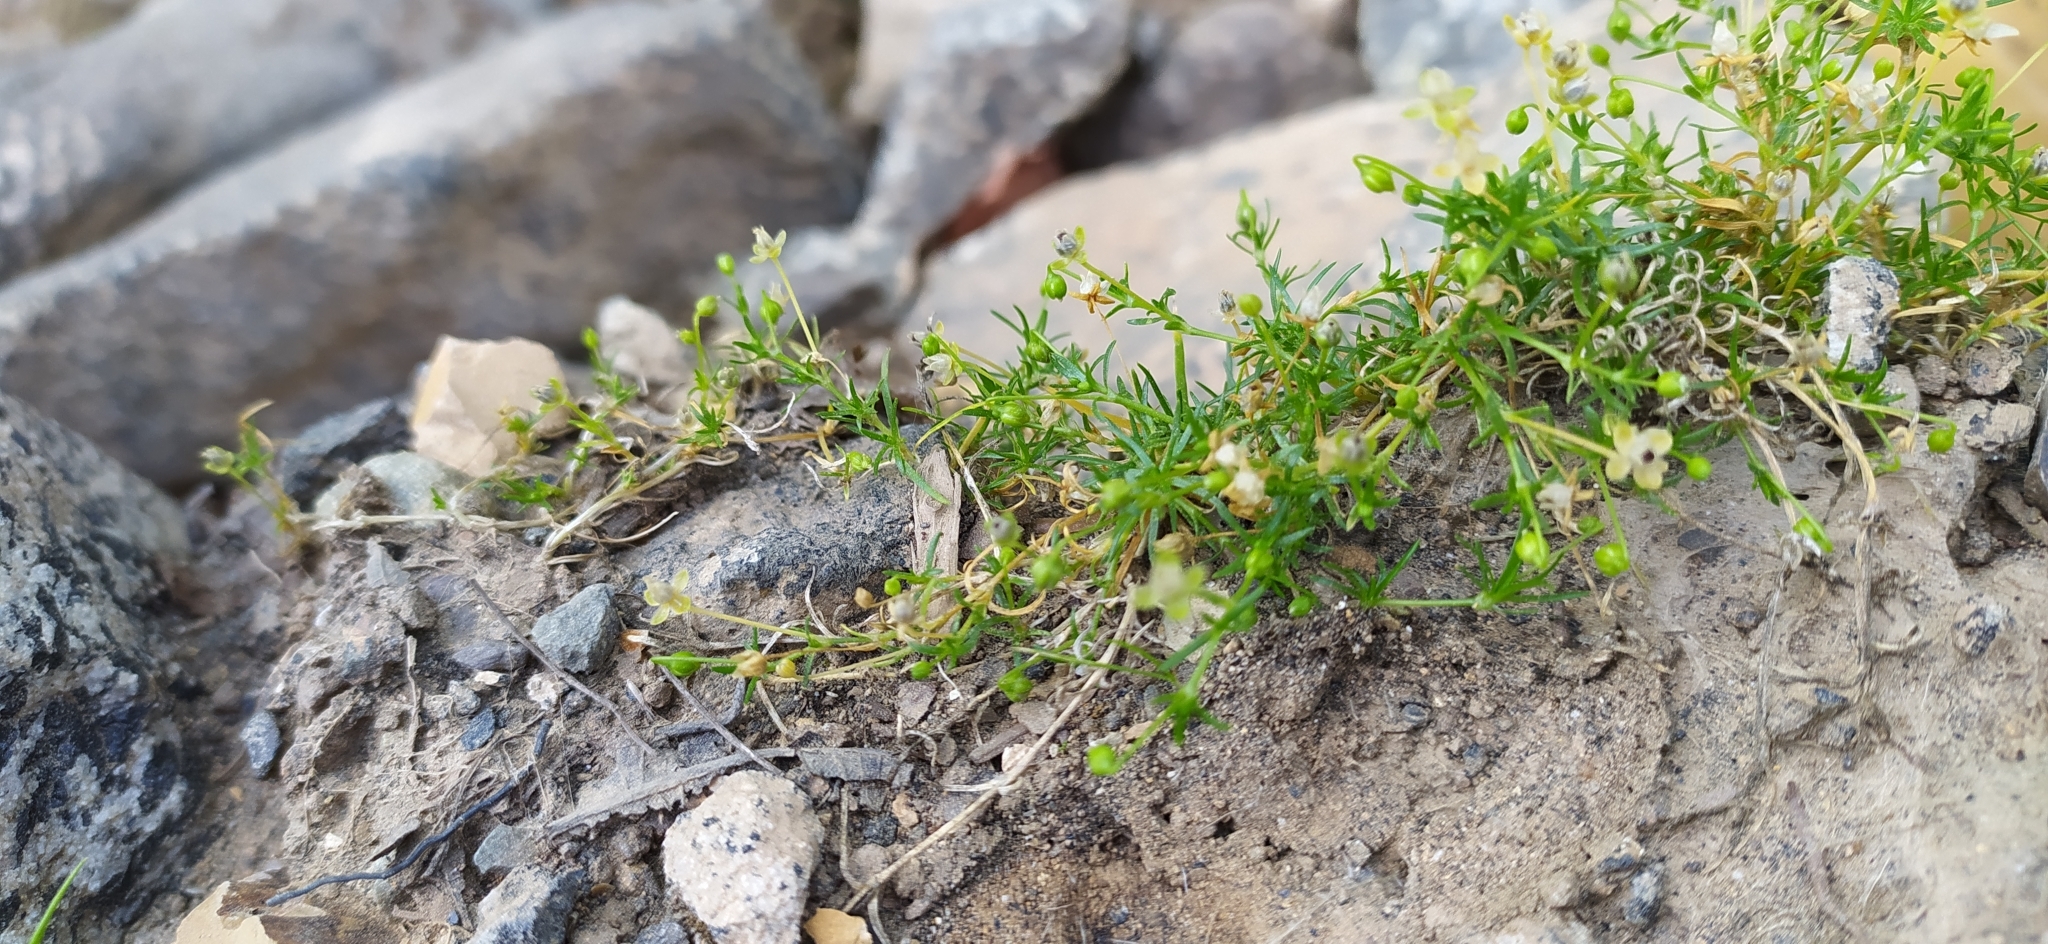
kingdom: Plantae
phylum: Tracheophyta
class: Magnoliopsida
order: Caryophyllales
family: Caryophyllaceae
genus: Sagina
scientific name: Sagina procumbens
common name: Procumbent pearlwort
